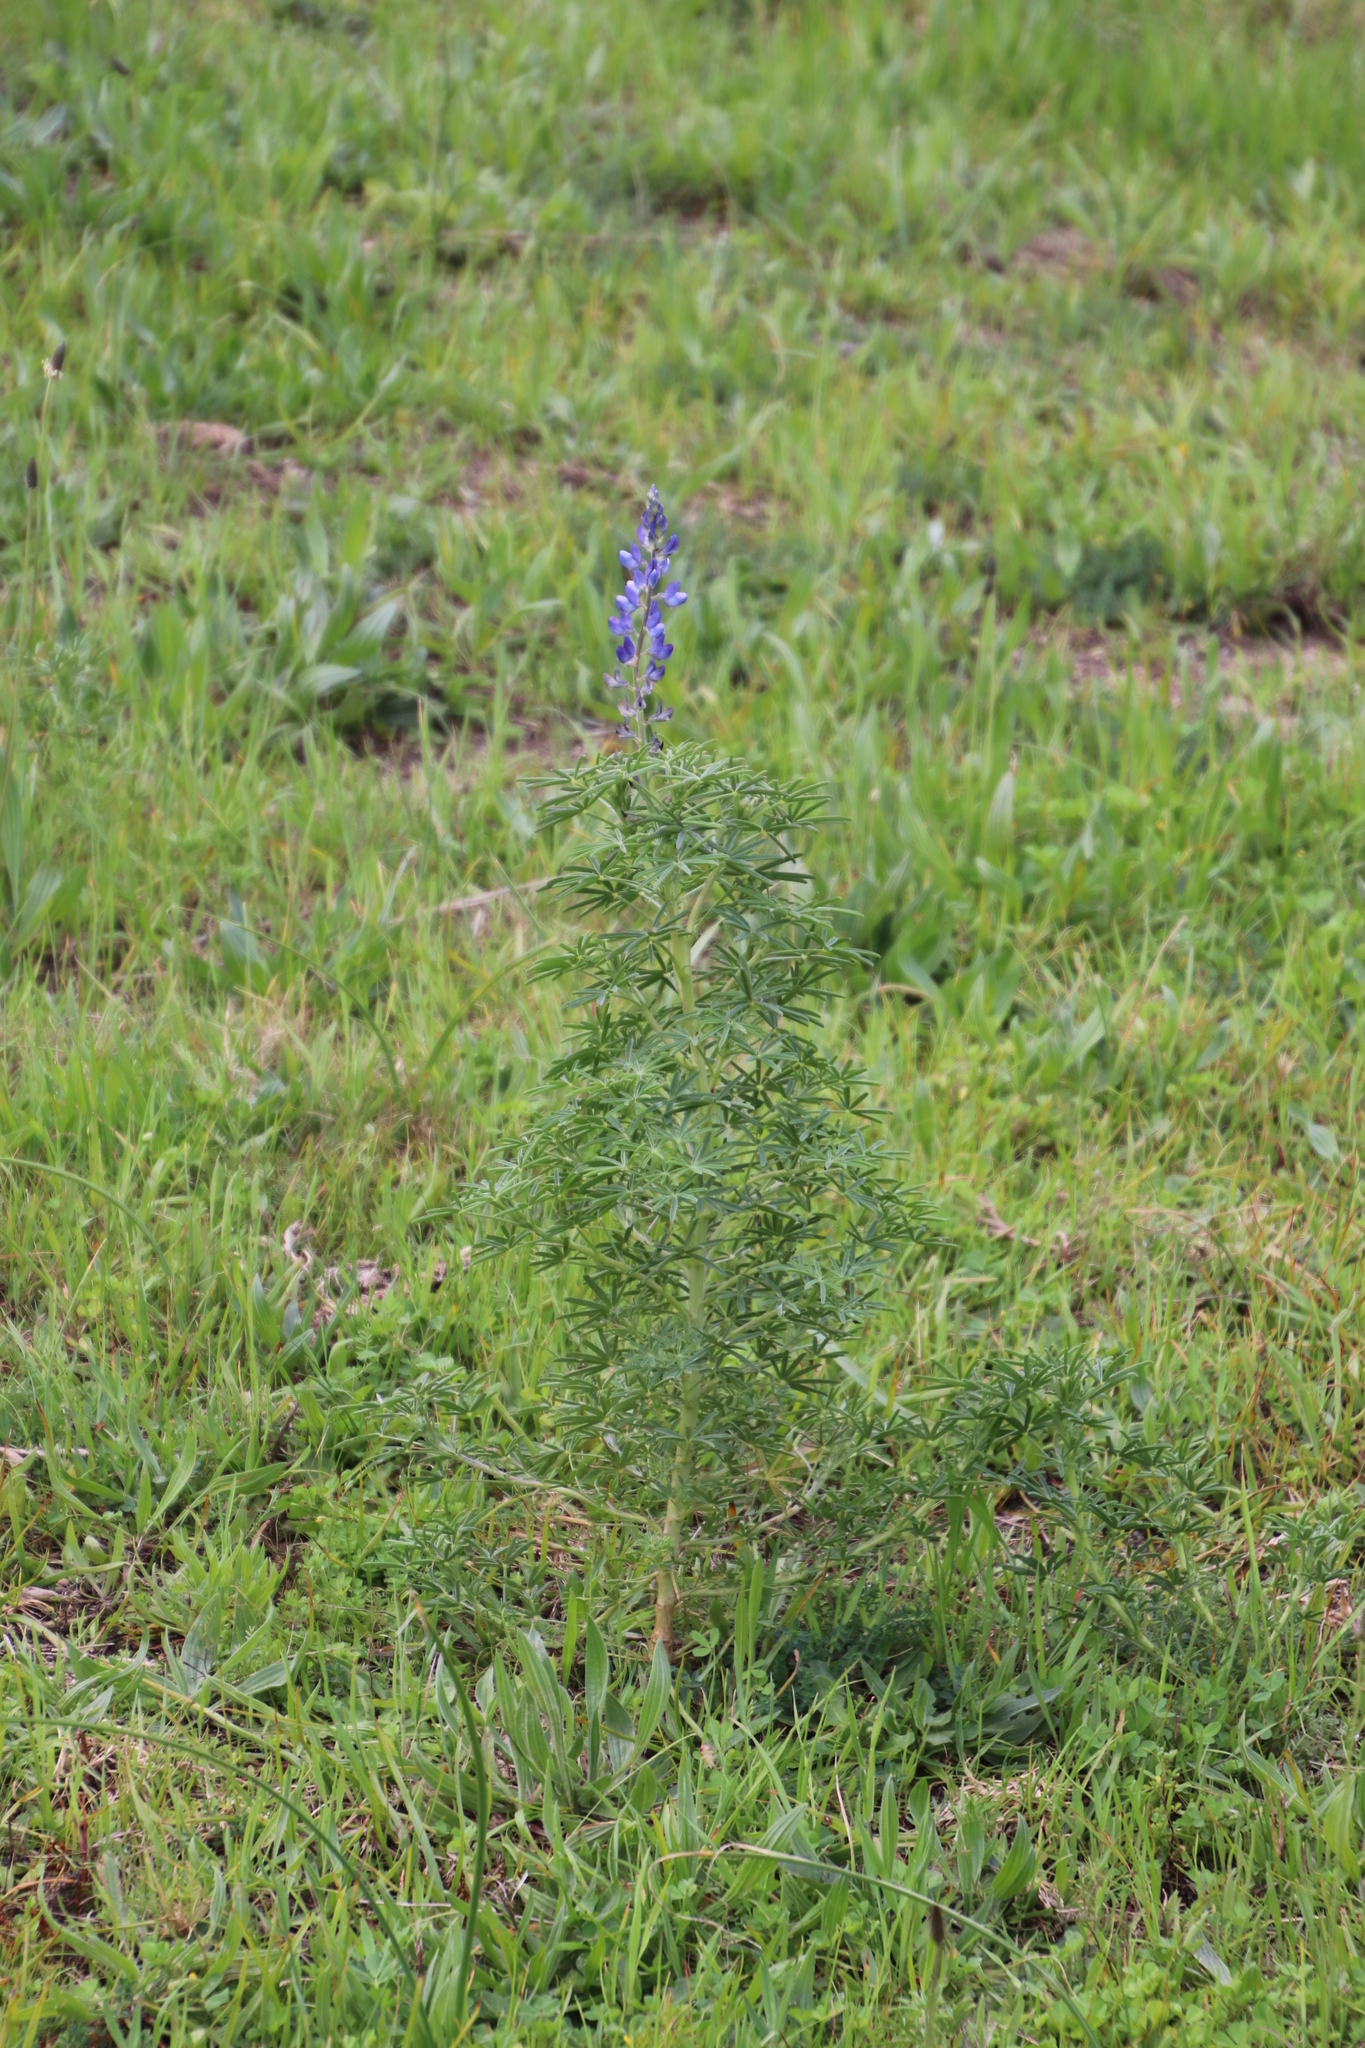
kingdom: Plantae
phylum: Tracheophyta
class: Magnoliopsida
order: Fabales
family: Fabaceae
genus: Lupinus
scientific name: Lupinus angustifolius
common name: Narrow-leaved lupin
